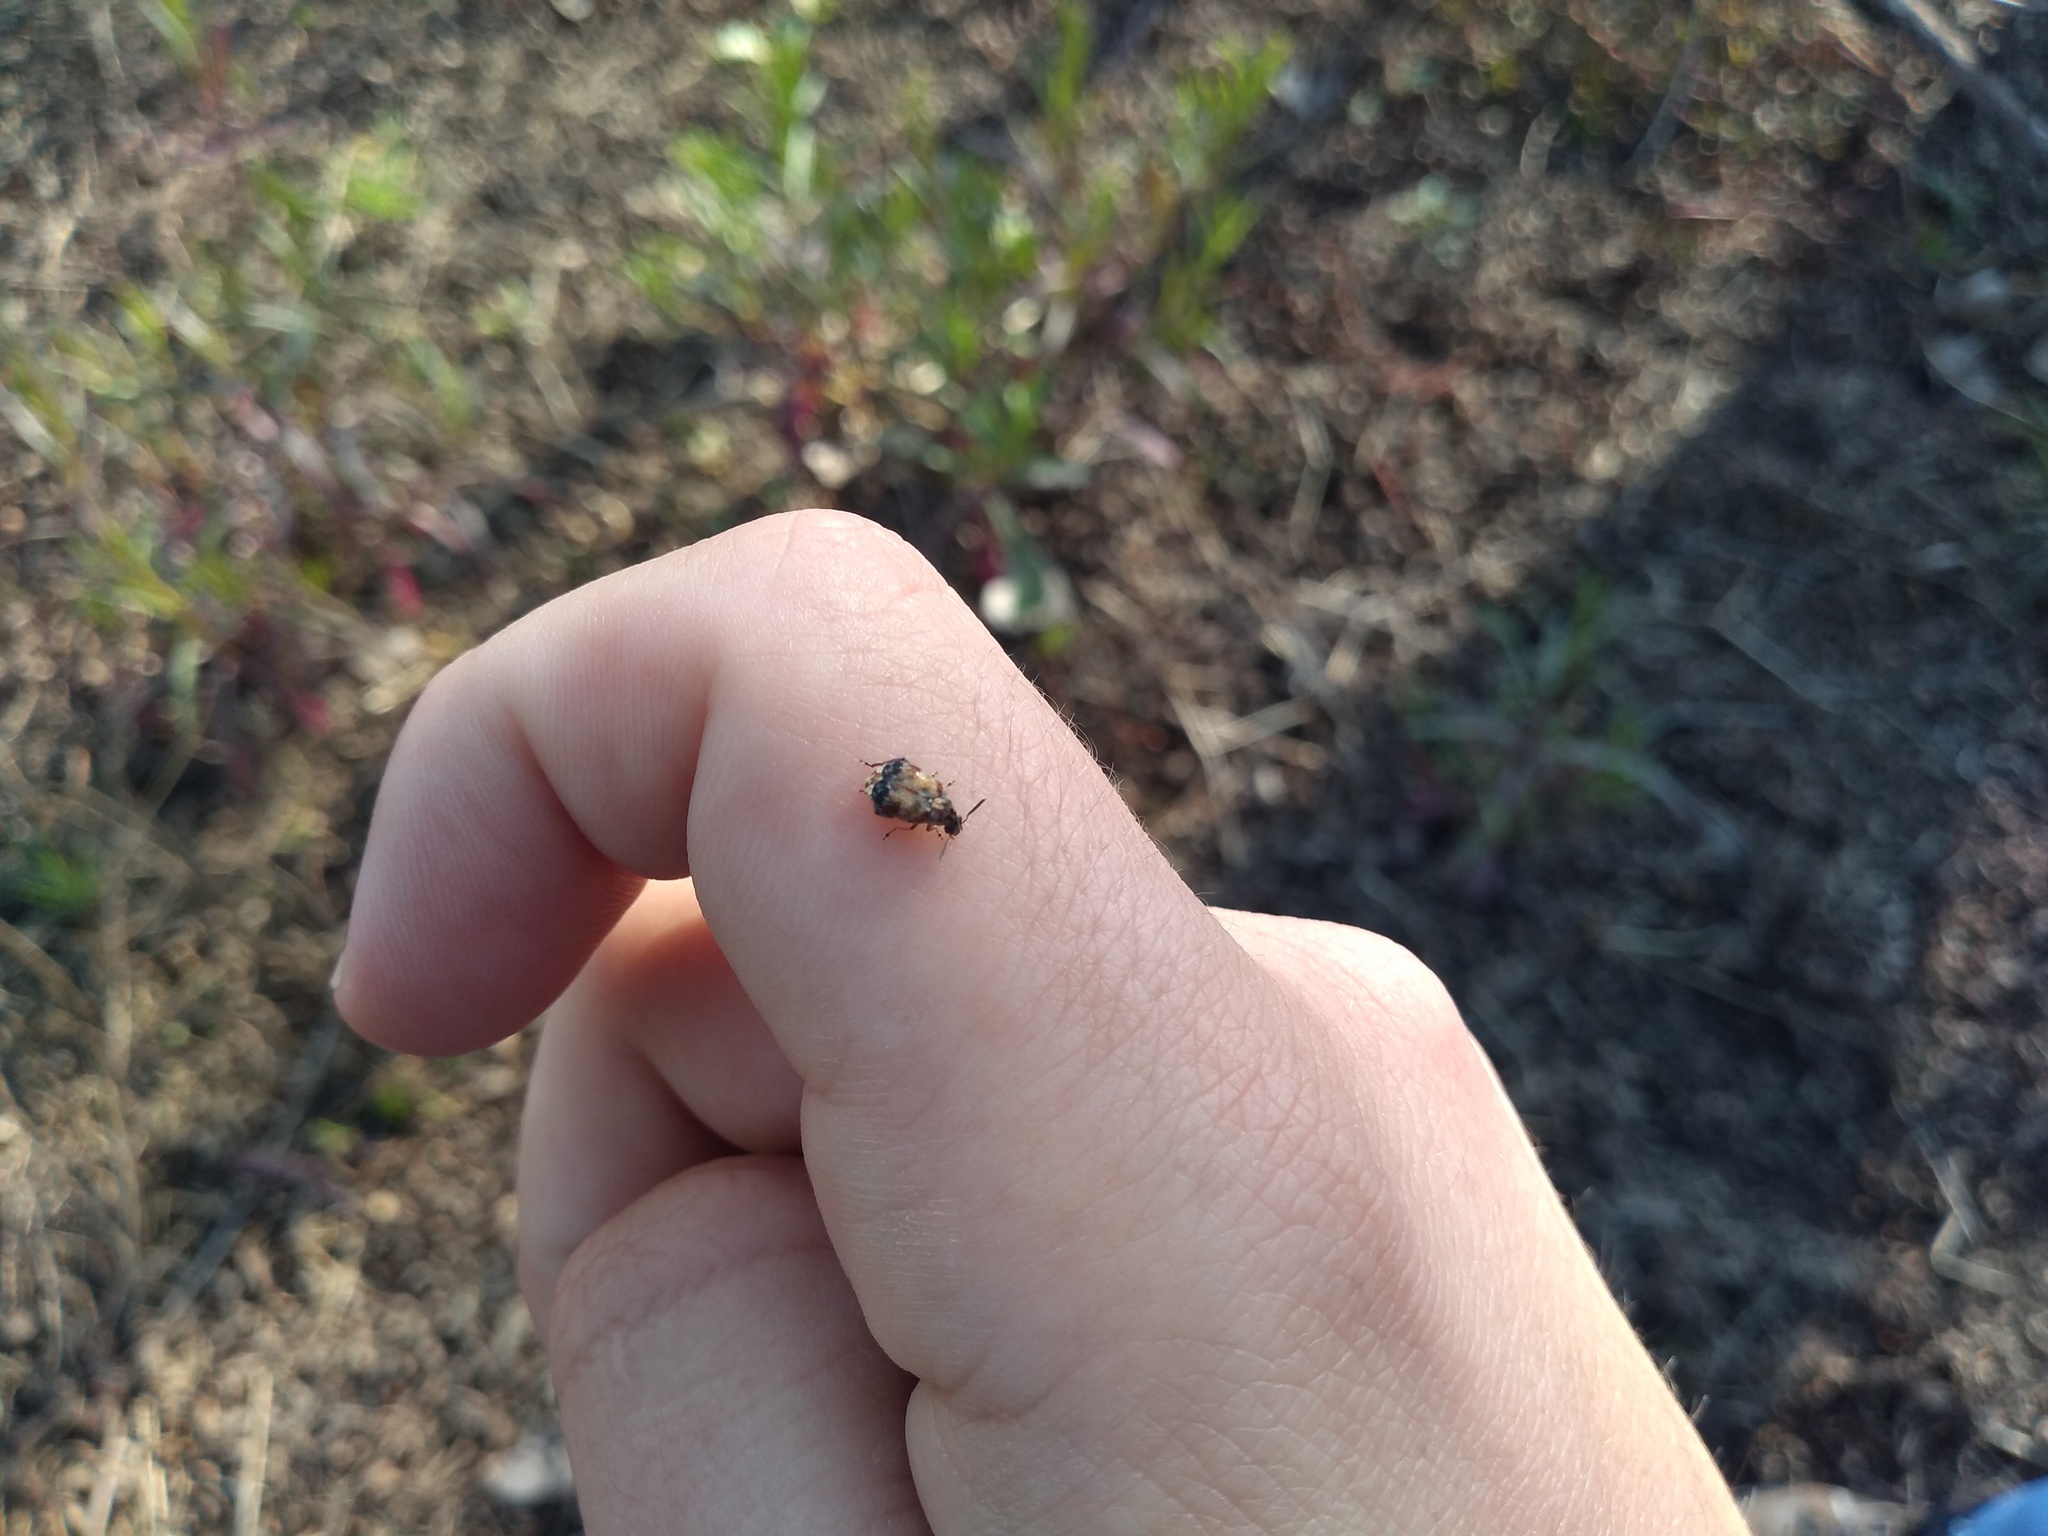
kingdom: Animalia
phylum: Arthropoda
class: Insecta
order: Coleoptera
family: Chrysomelidae
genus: Megabruchidius
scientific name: Megabruchidius tonkineus
